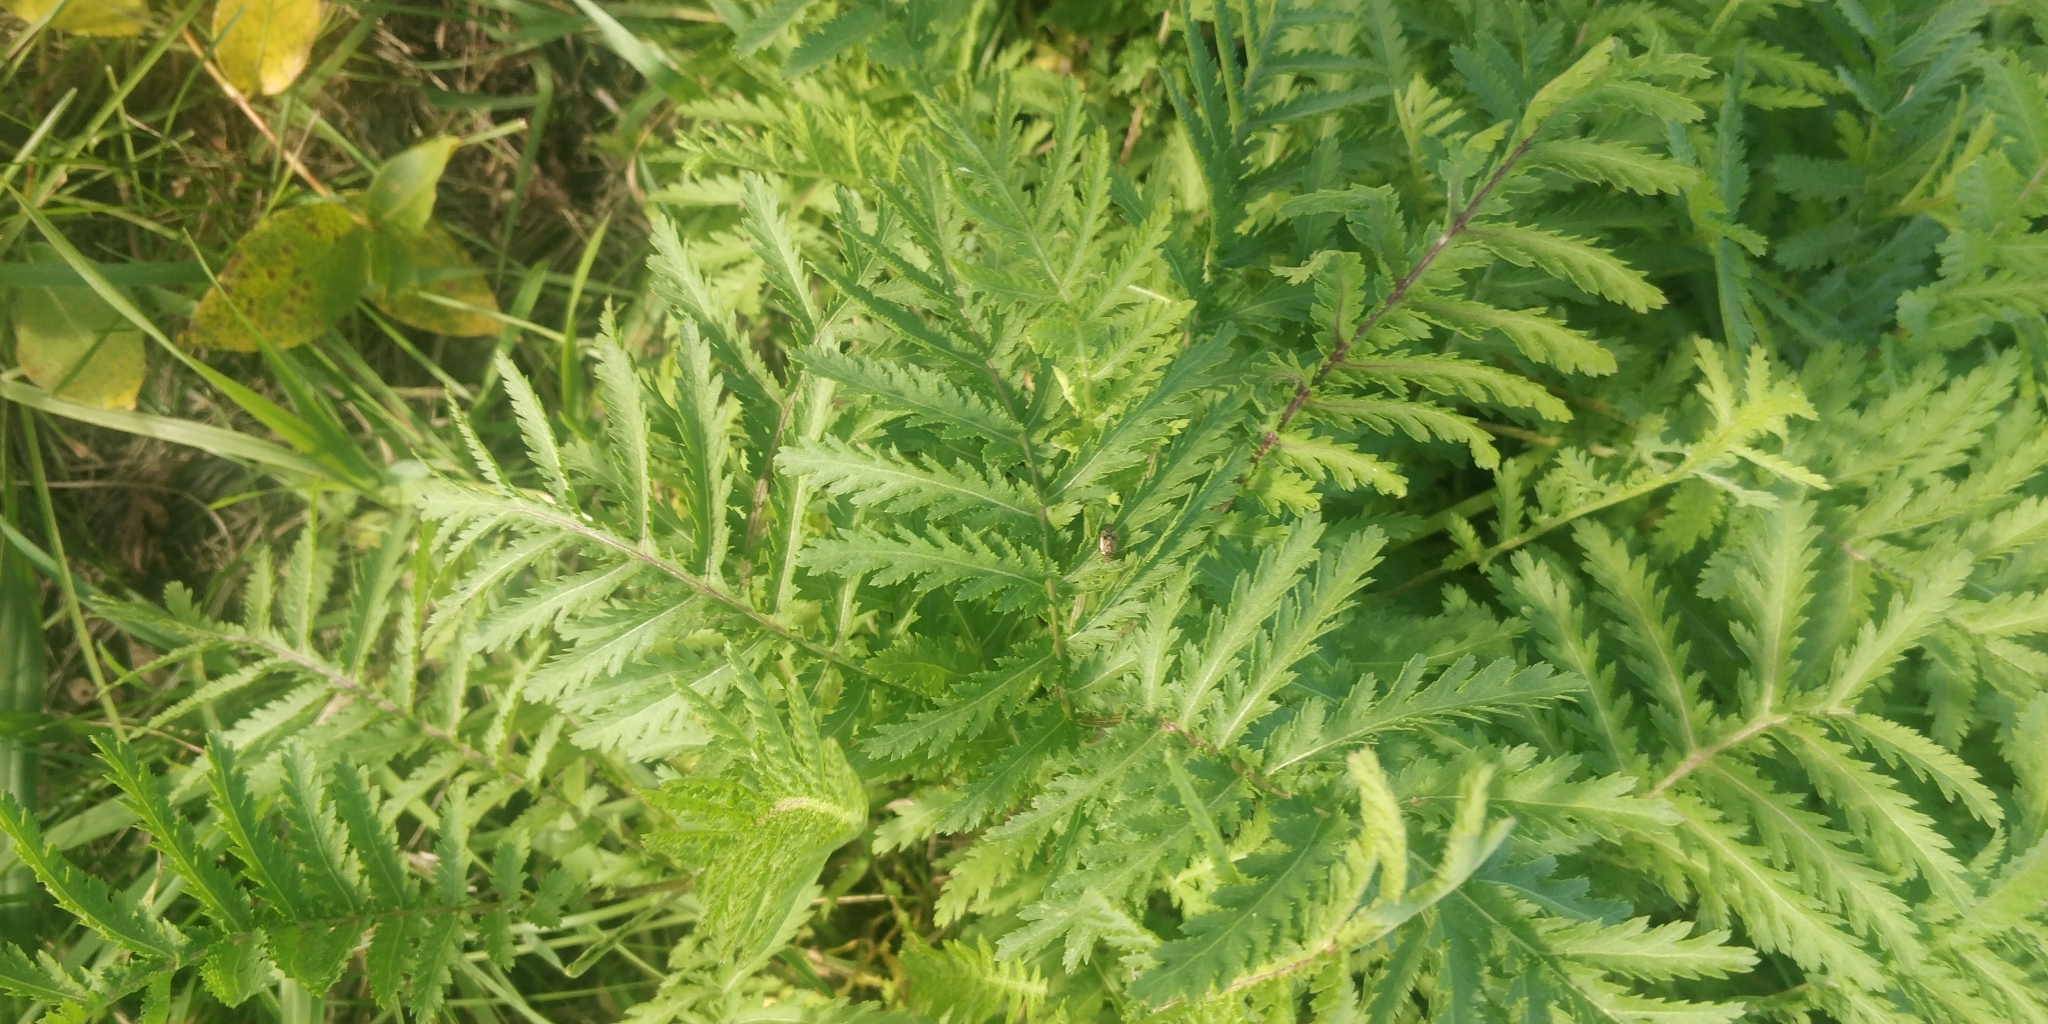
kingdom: Plantae
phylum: Tracheophyta
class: Magnoliopsida
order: Asterales
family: Asteraceae
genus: Tanacetum
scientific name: Tanacetum vulgare
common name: Common tansy
